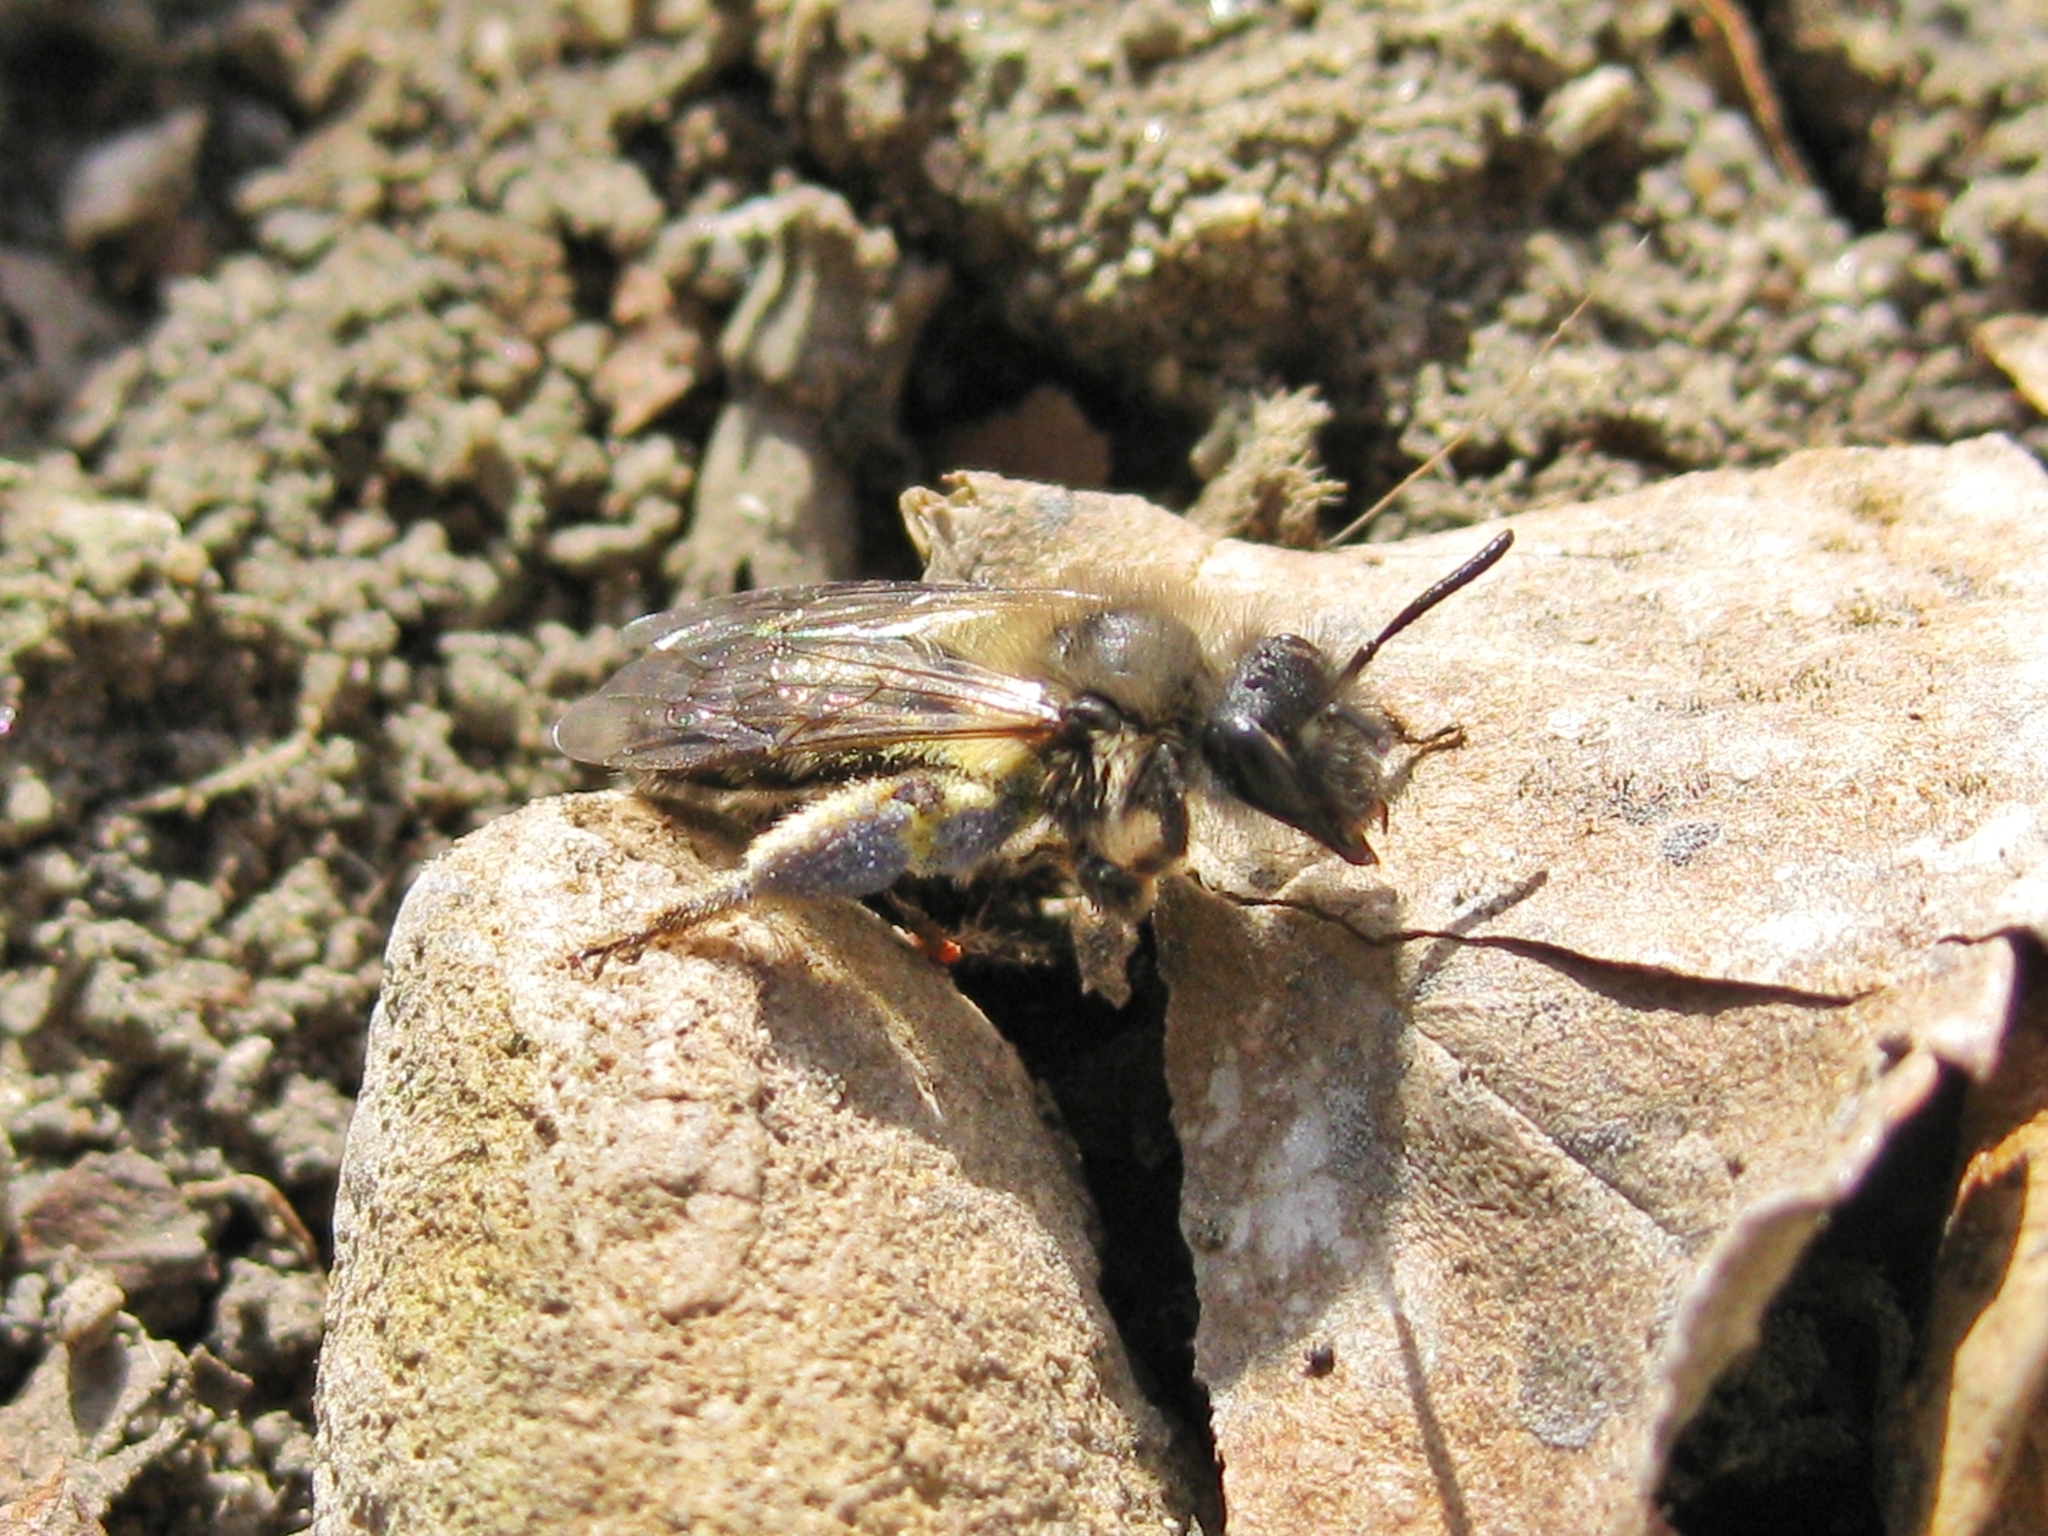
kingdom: Animalia
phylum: Arthropoda
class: Insecta
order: Hymenoptera
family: Andrenidae
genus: Andrena
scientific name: Andrena
